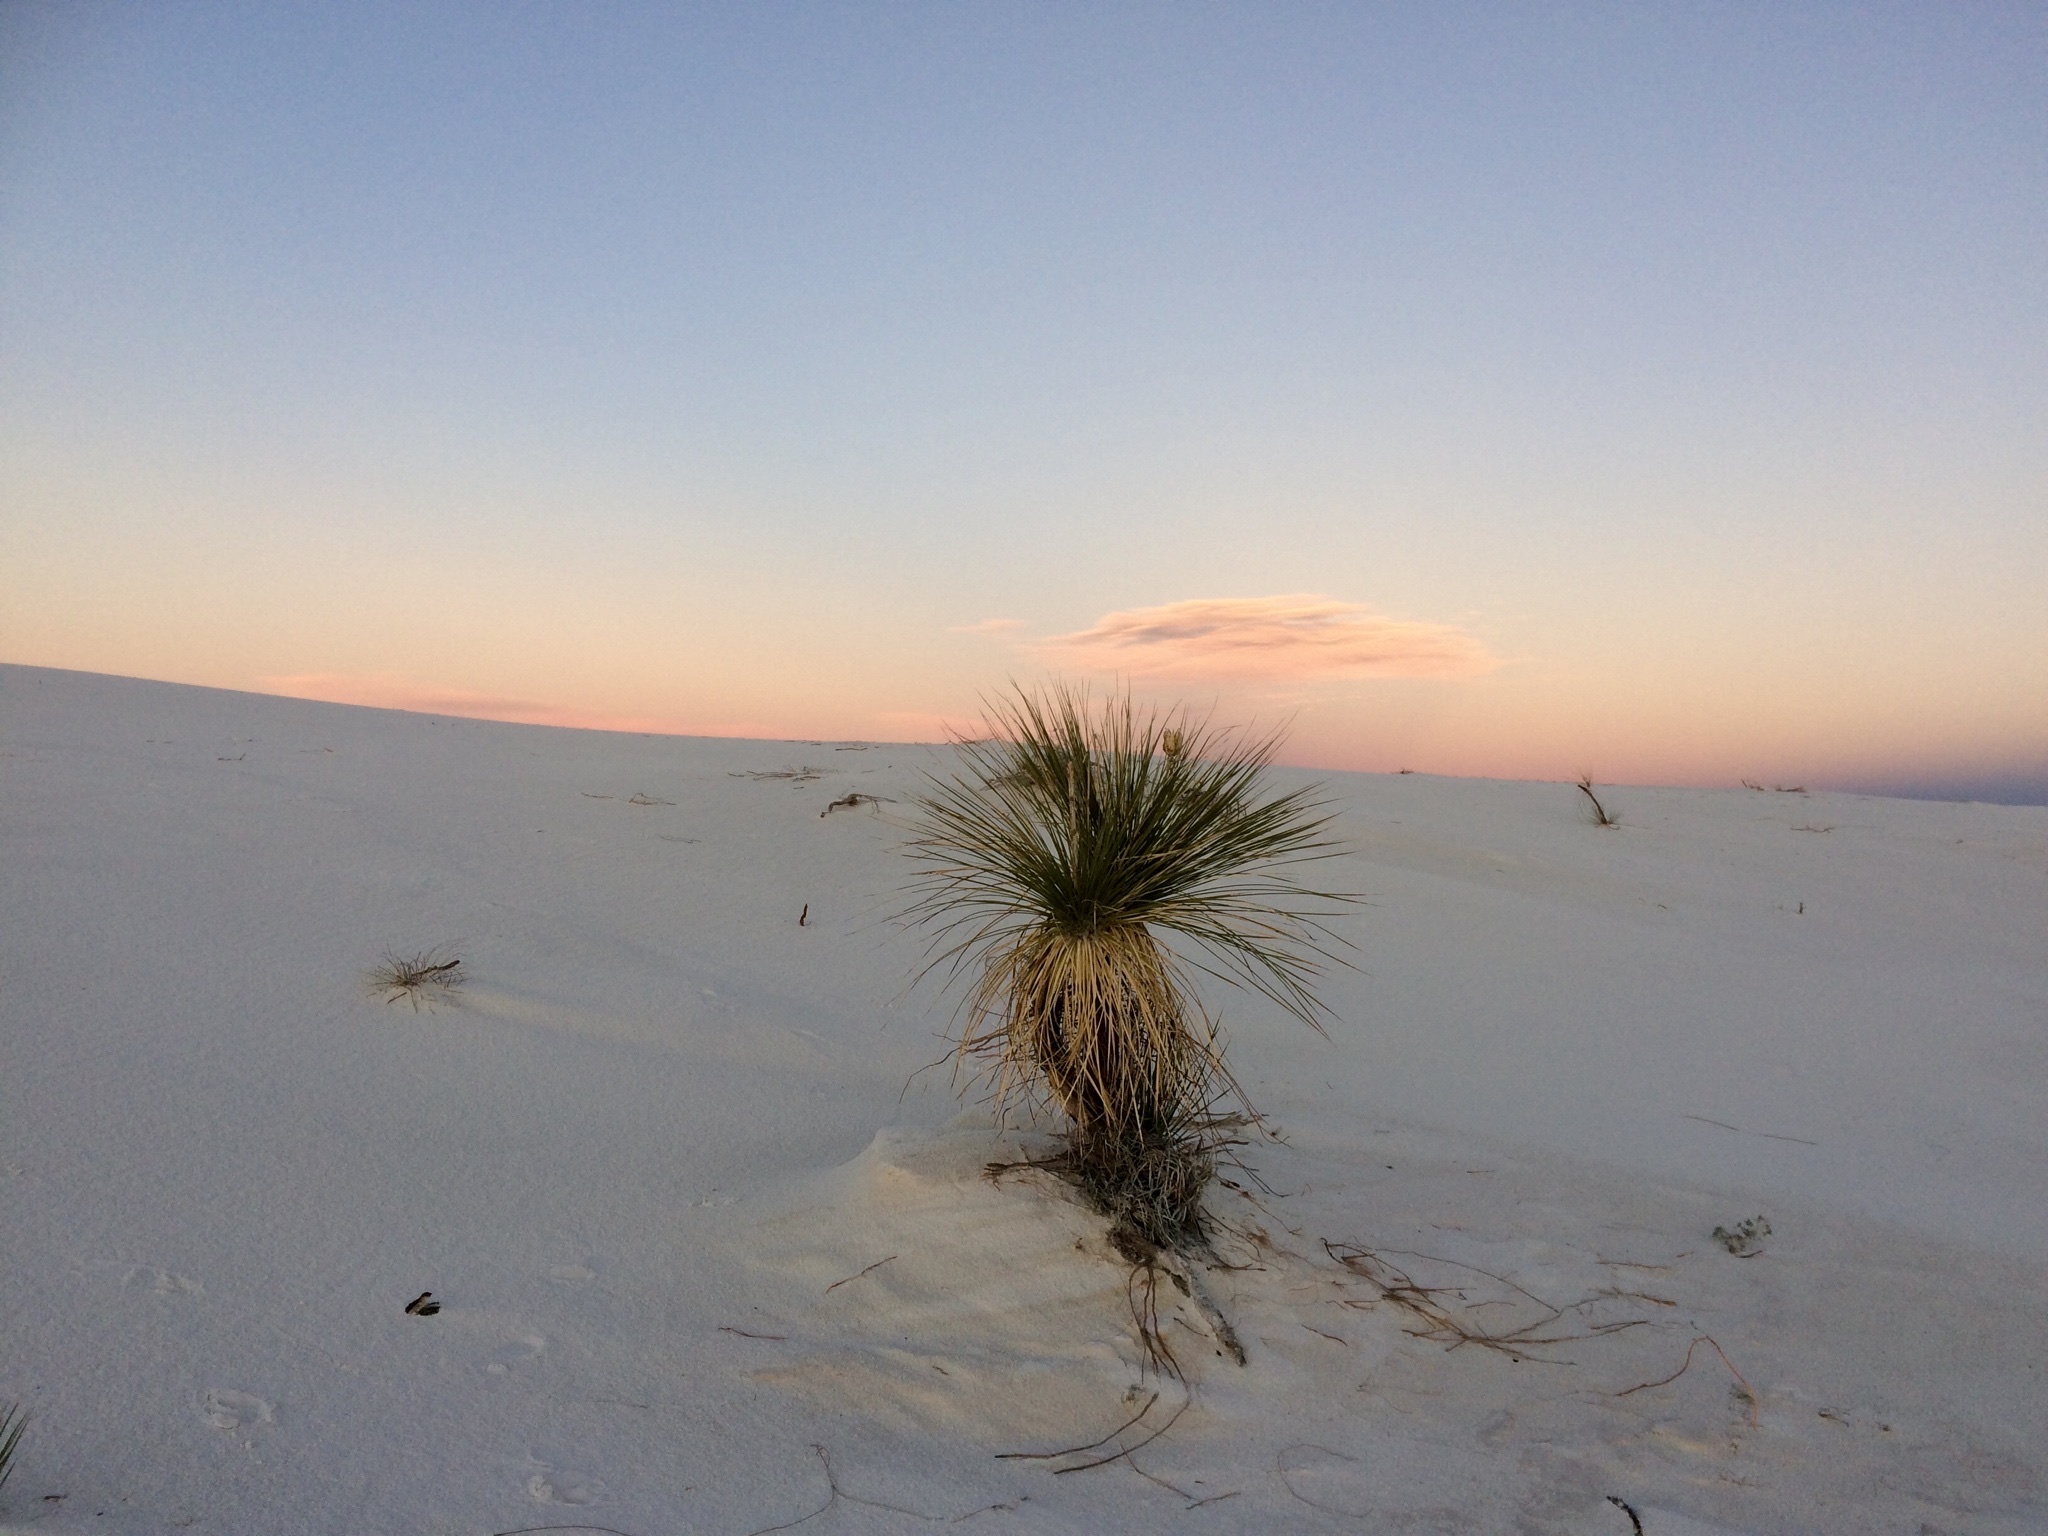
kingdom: Plantae
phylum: Tracheophyta
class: Liliopsida
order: Asparagales
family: Asparagaceae
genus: Yucca
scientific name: Yucca elata
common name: Palmella
